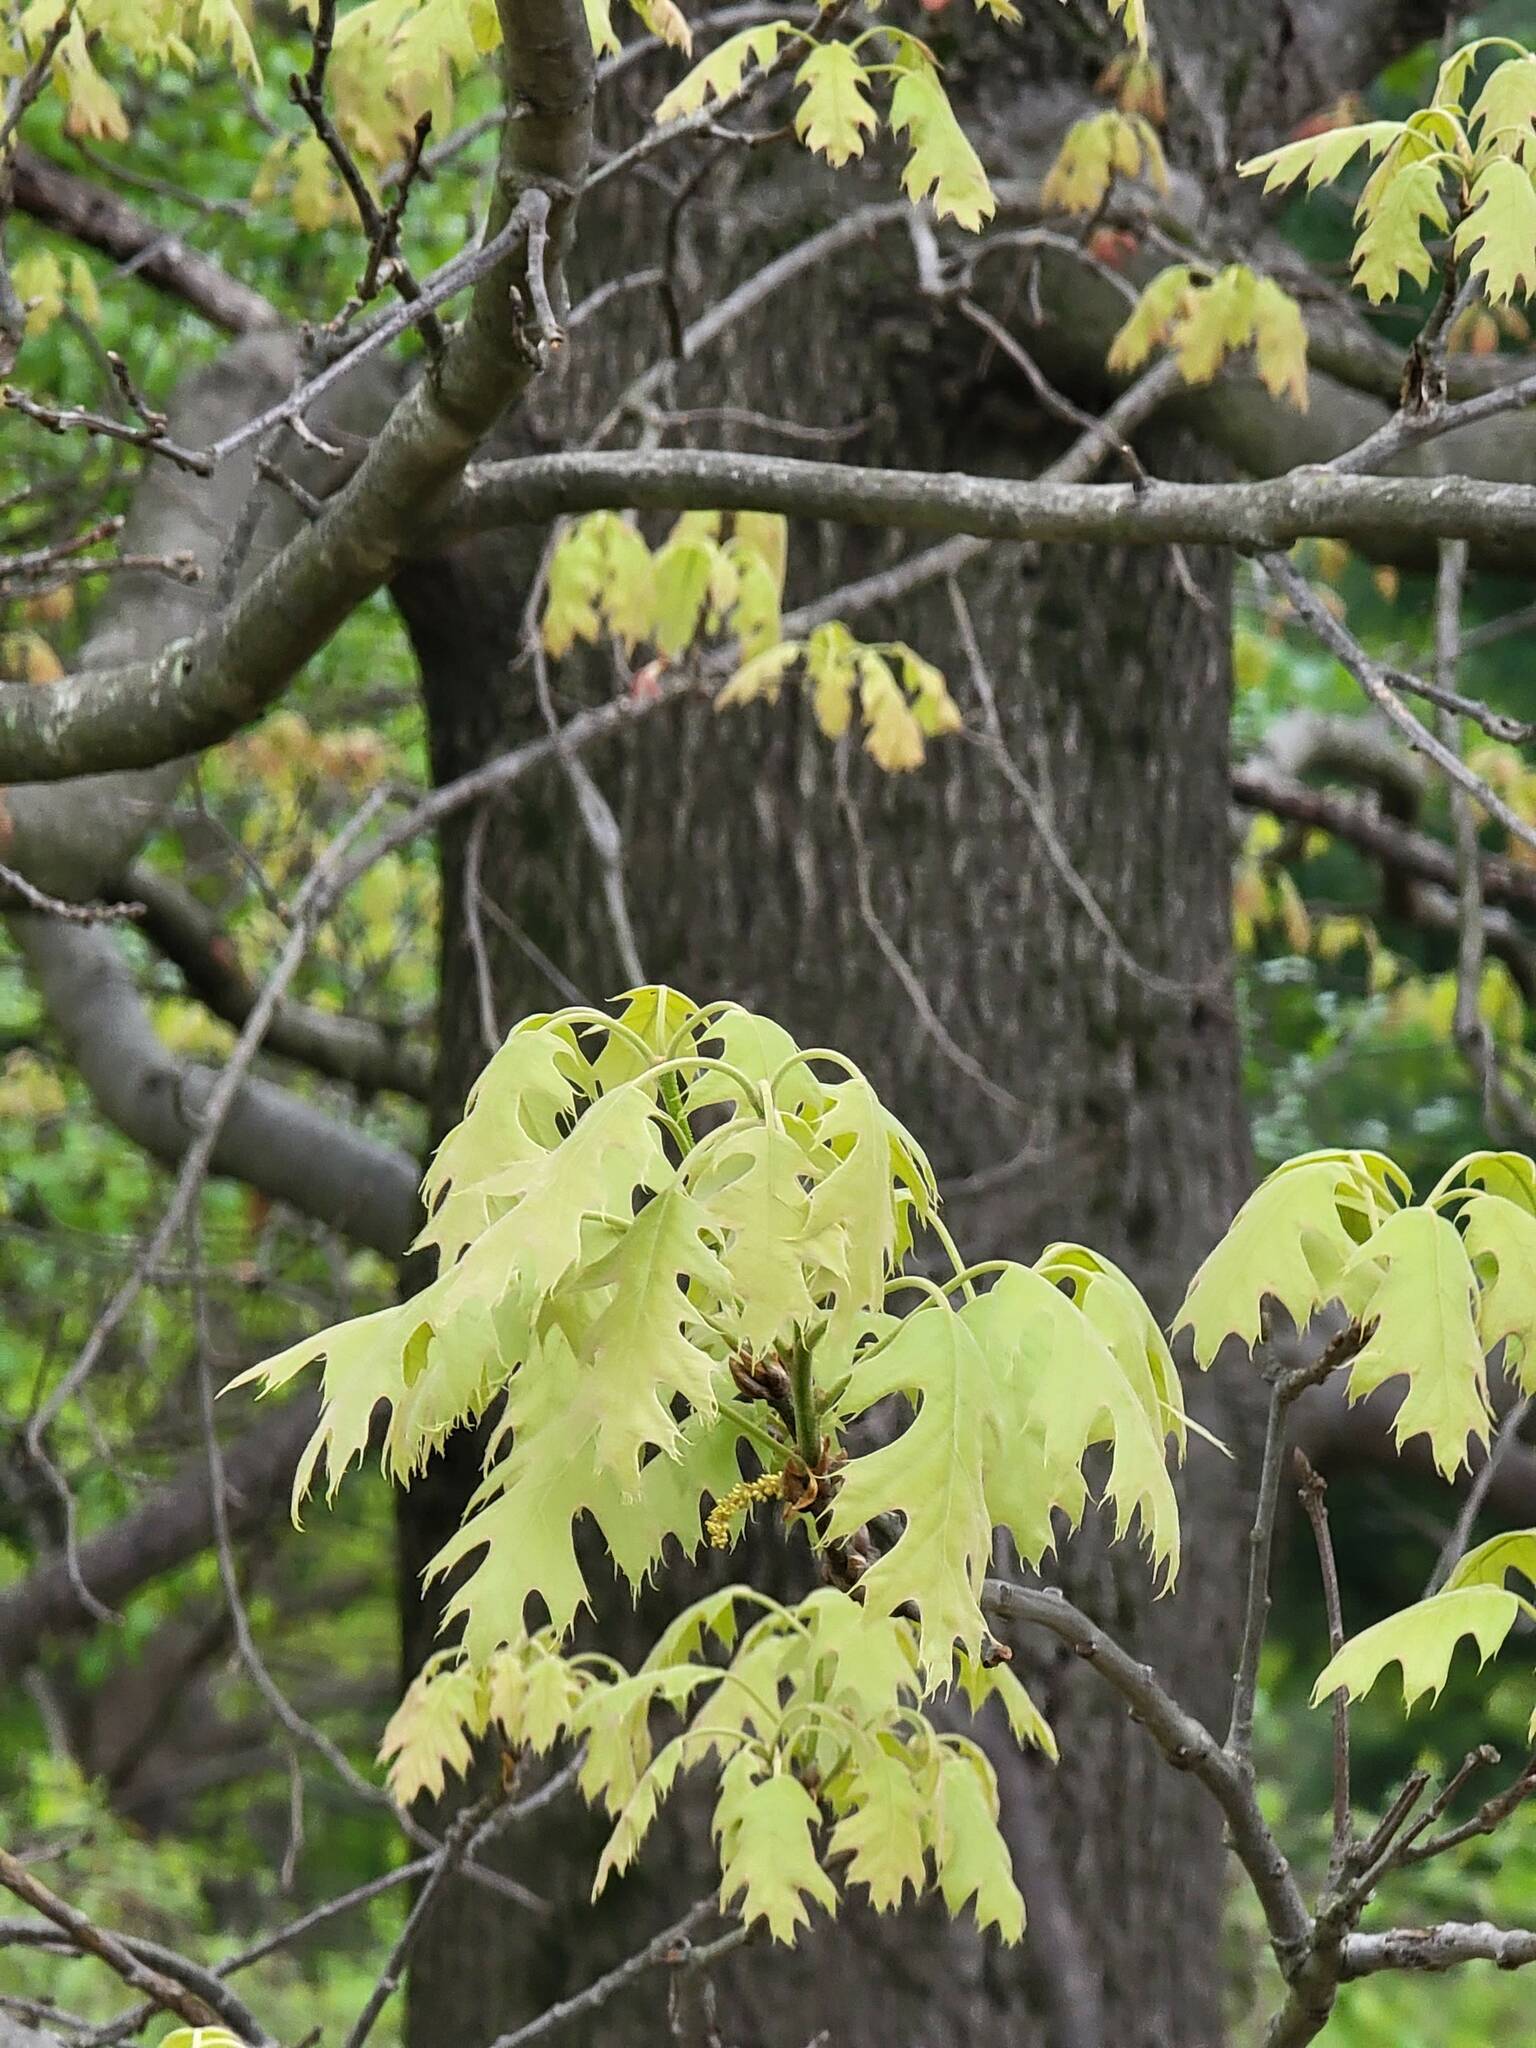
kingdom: Plantae
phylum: Tracheophyta
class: Magnoliopsida
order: Fagales
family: Fagaceae
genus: Quercus
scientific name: Quercus rubra
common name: Red oak
